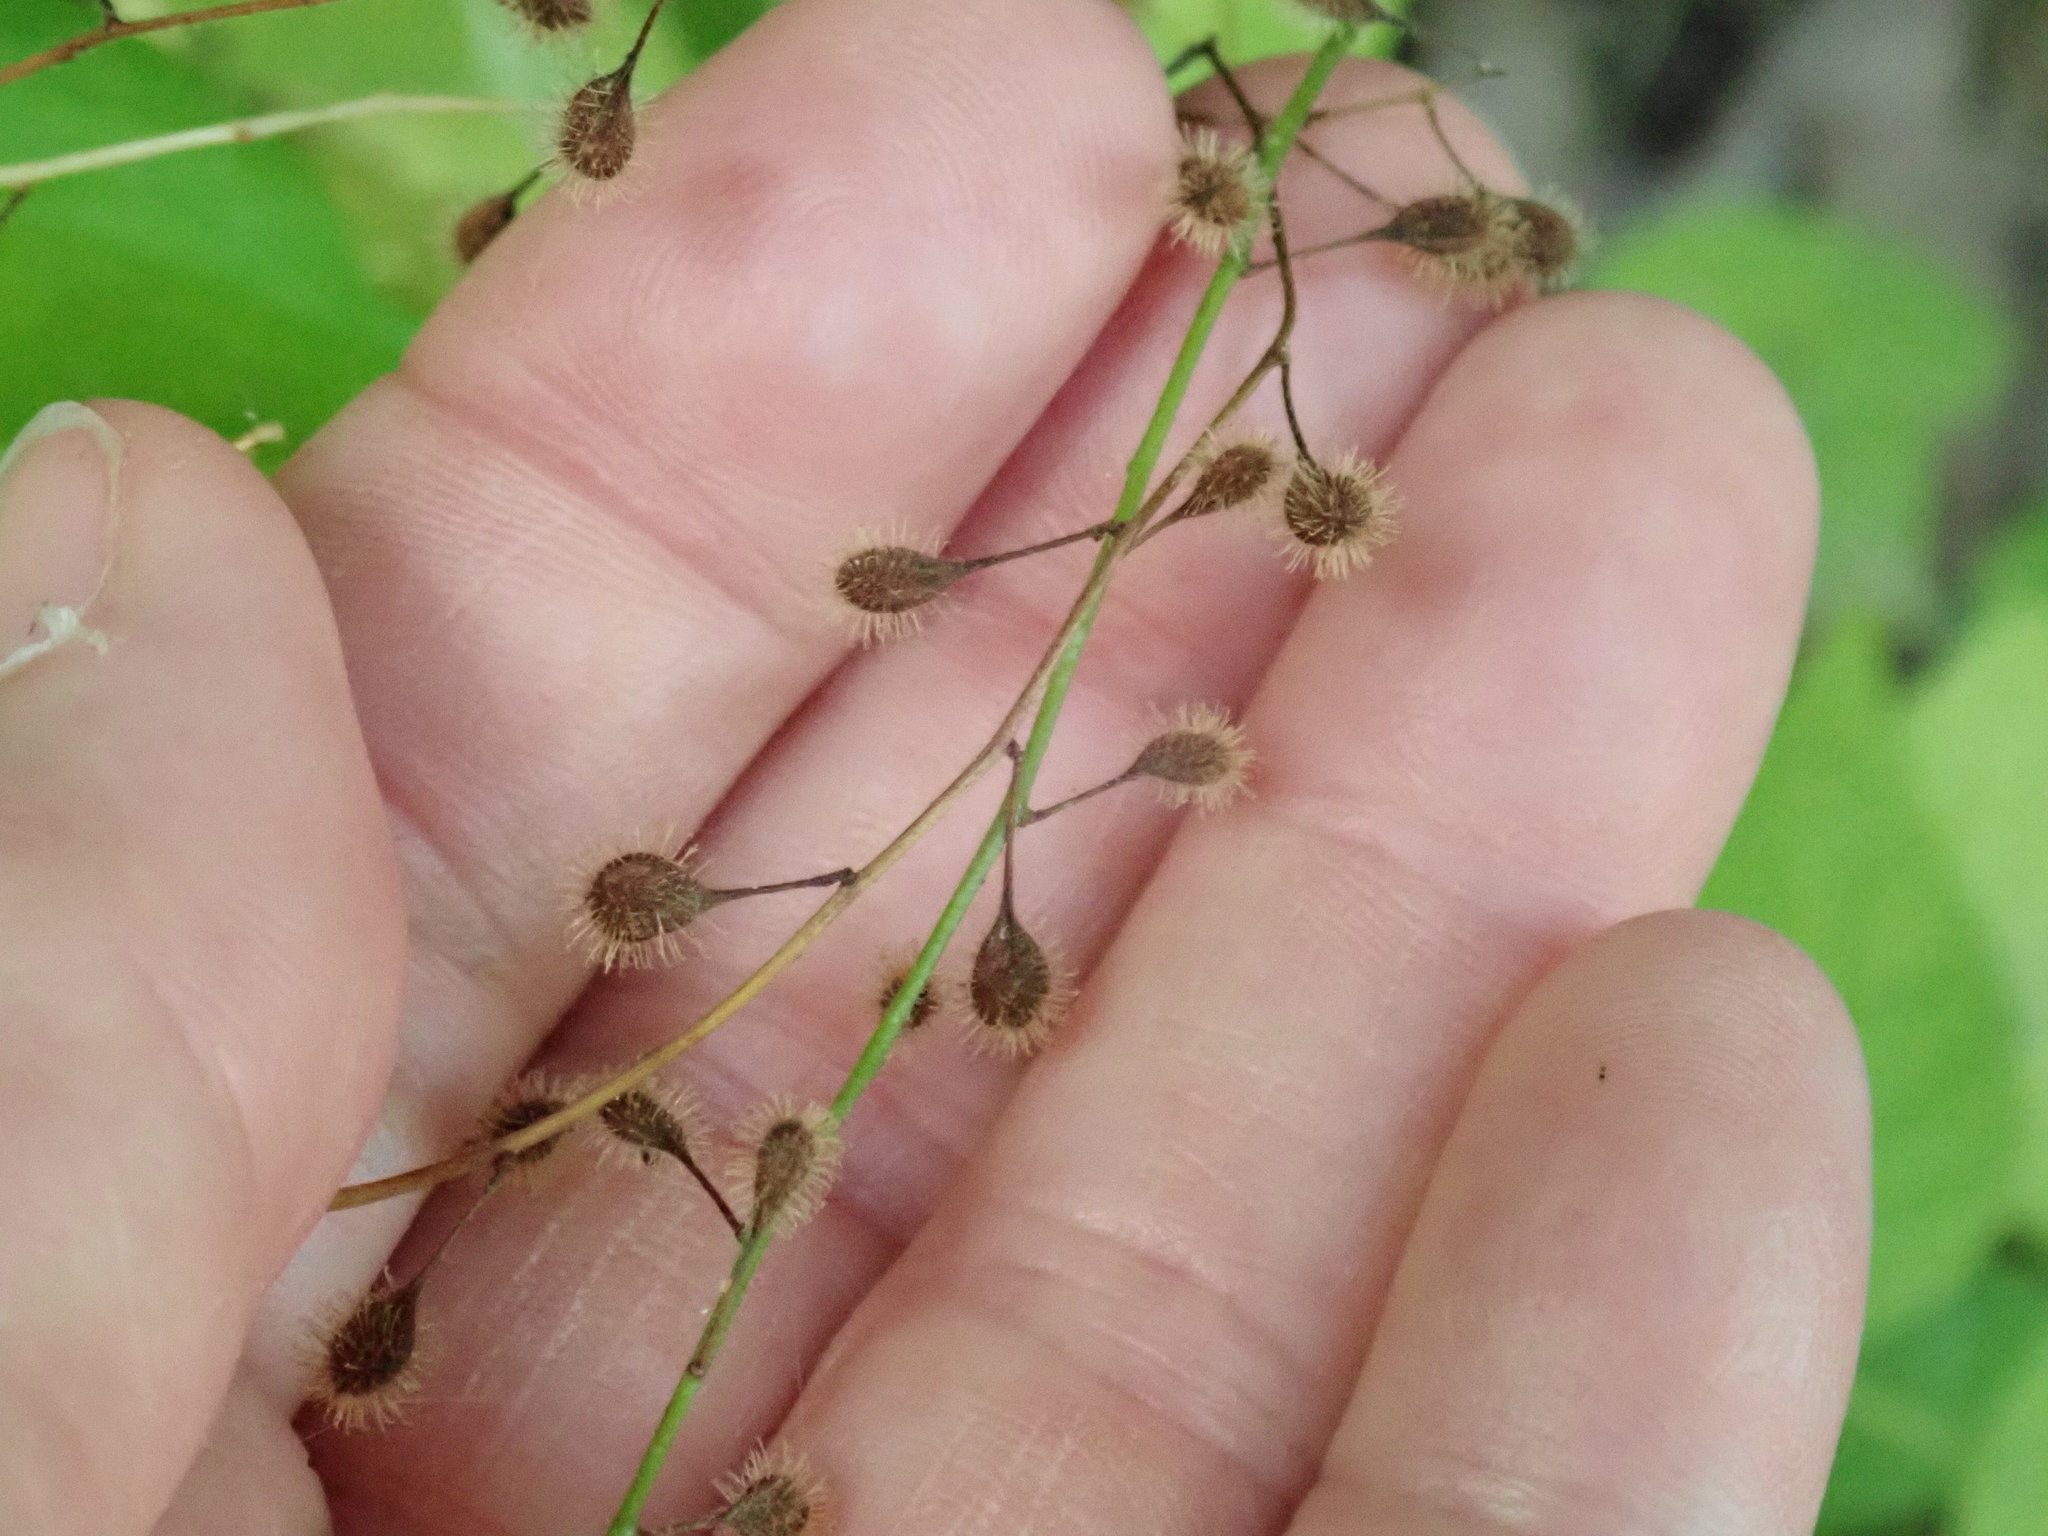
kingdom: Plantae
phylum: Tracheophyta
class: Magnoliopsida
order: Myrtales
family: Onagraceae
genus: Circaea
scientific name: Circaea canadensis
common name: Broad-leaved enchanter's nightshade
